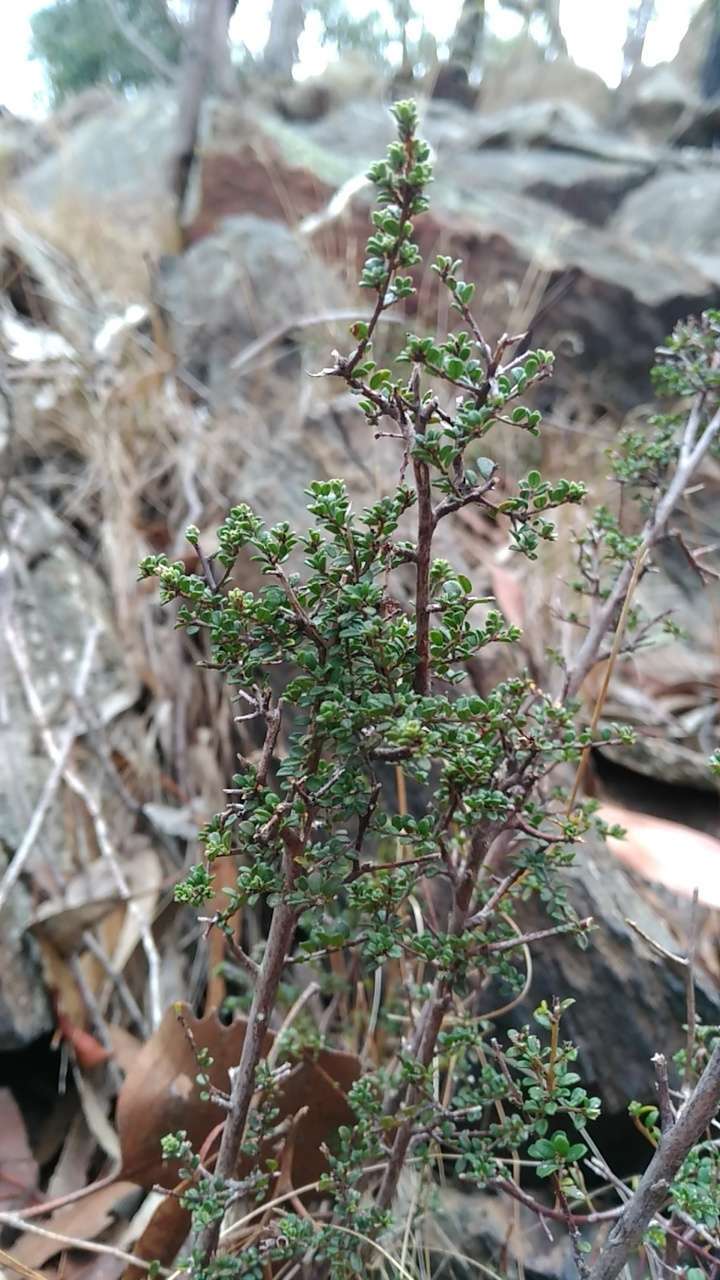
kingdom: Plantae
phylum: Tracheophyta
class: Magnoliopsida
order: Fabales
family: Fabaceae
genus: Pultenaea
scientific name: Pultenaea gunnii
